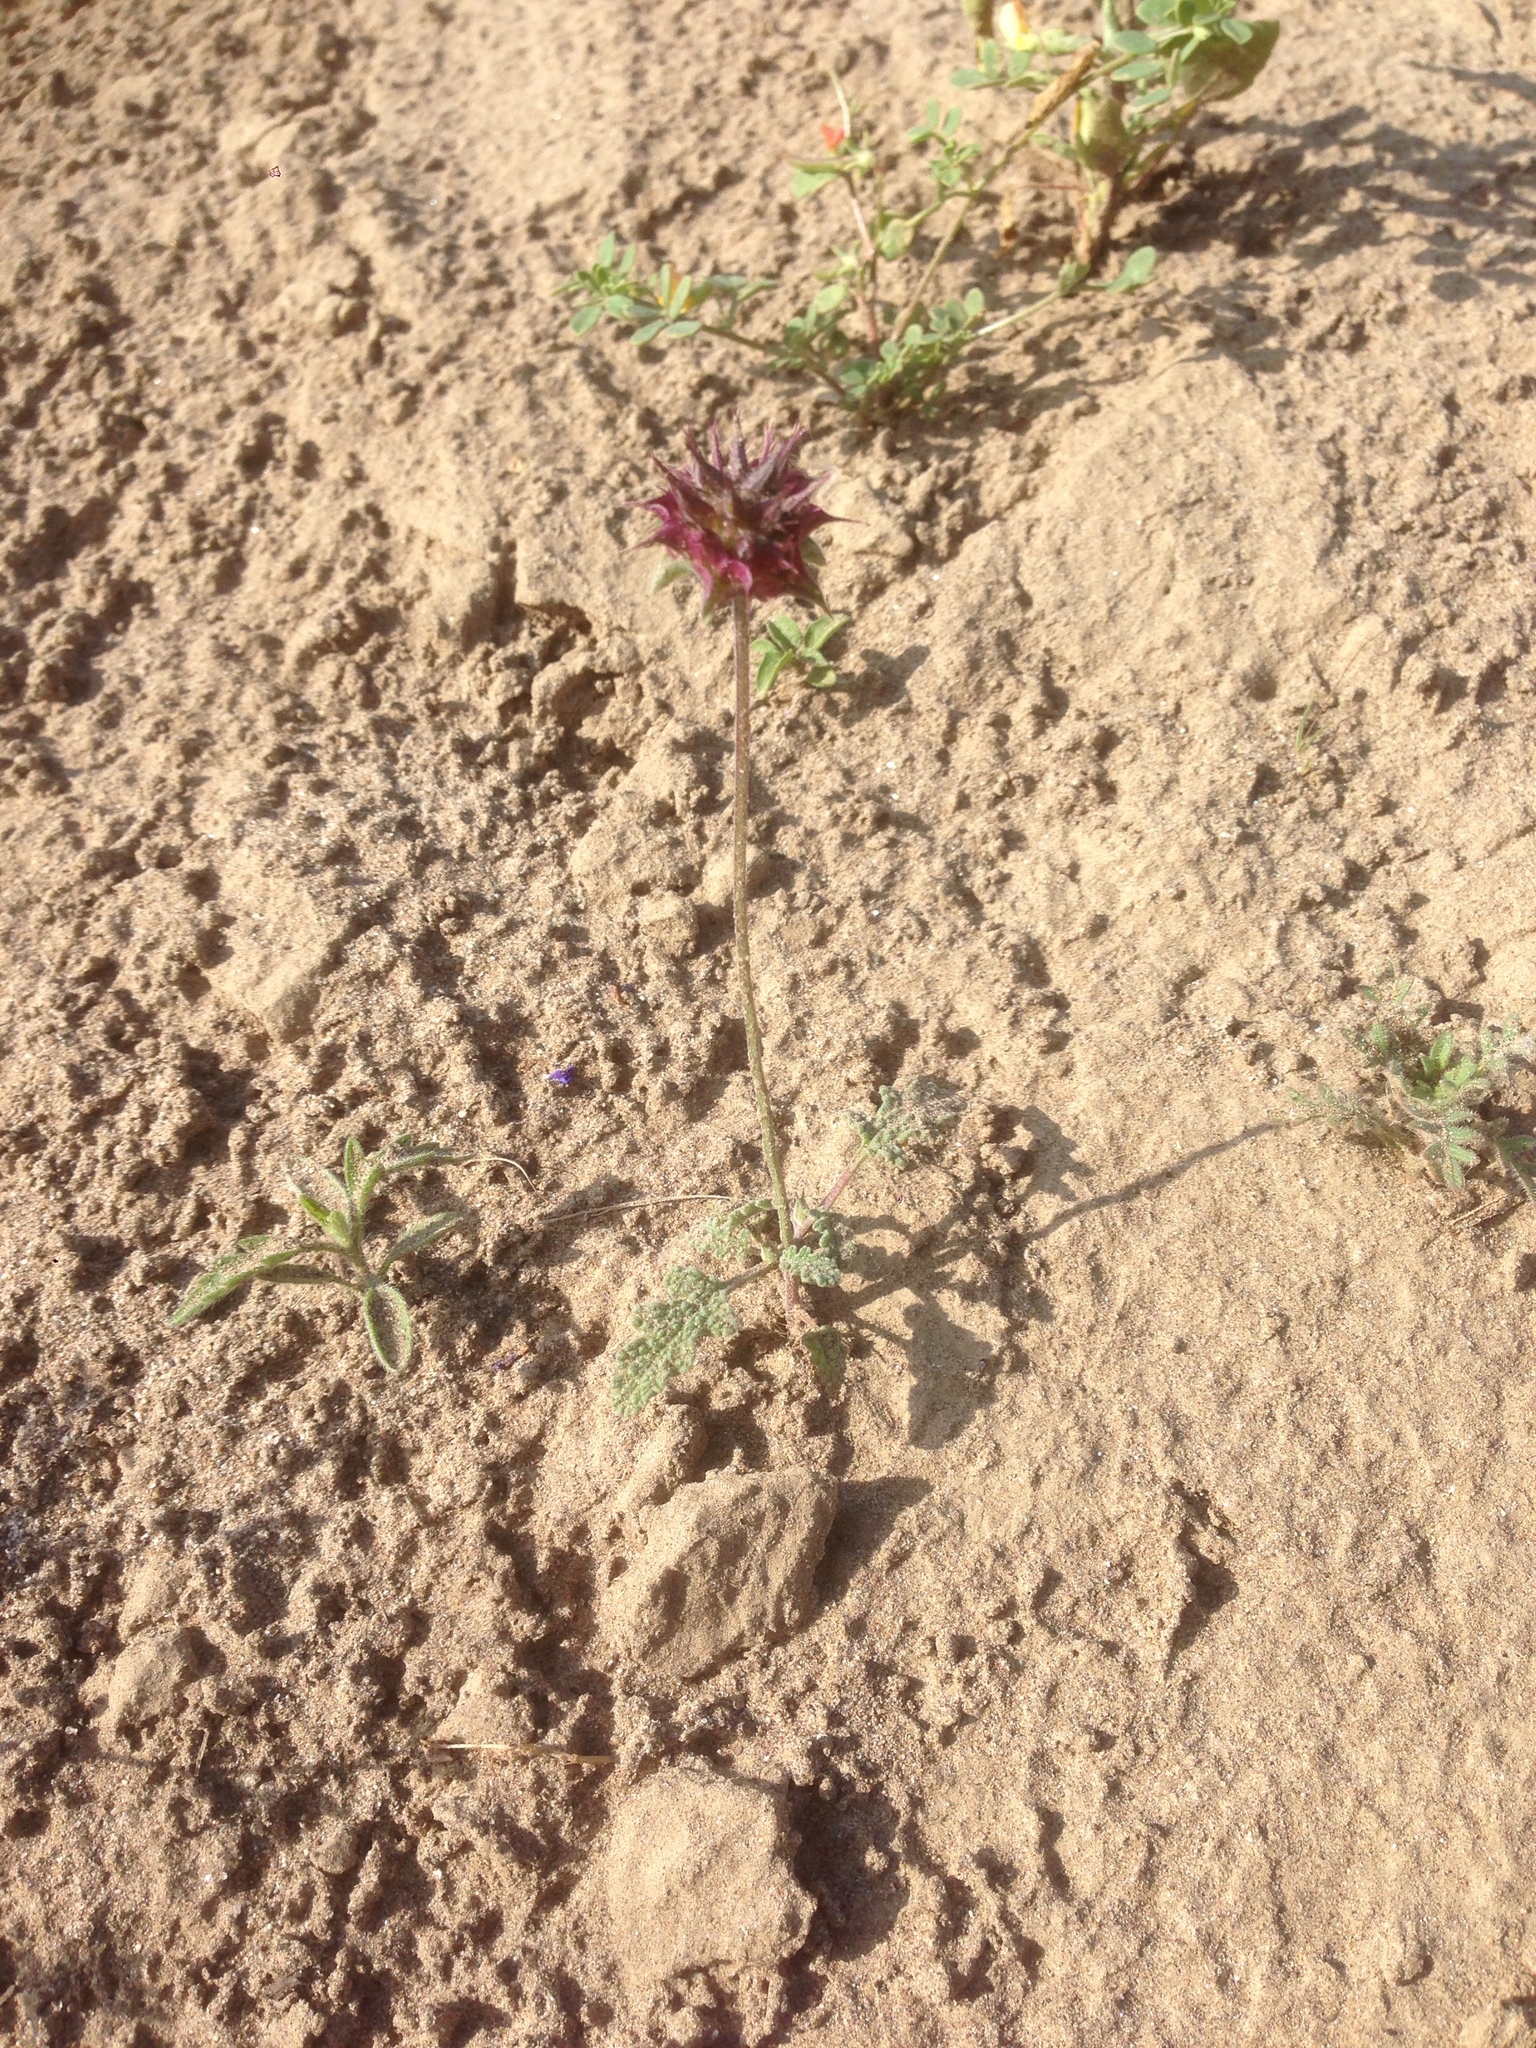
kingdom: Plantae
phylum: Tracheophyta
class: Magnoliopsida
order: Lamiales
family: Lamiaceae
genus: Salvia
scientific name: Salvia columbariae
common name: Chia
